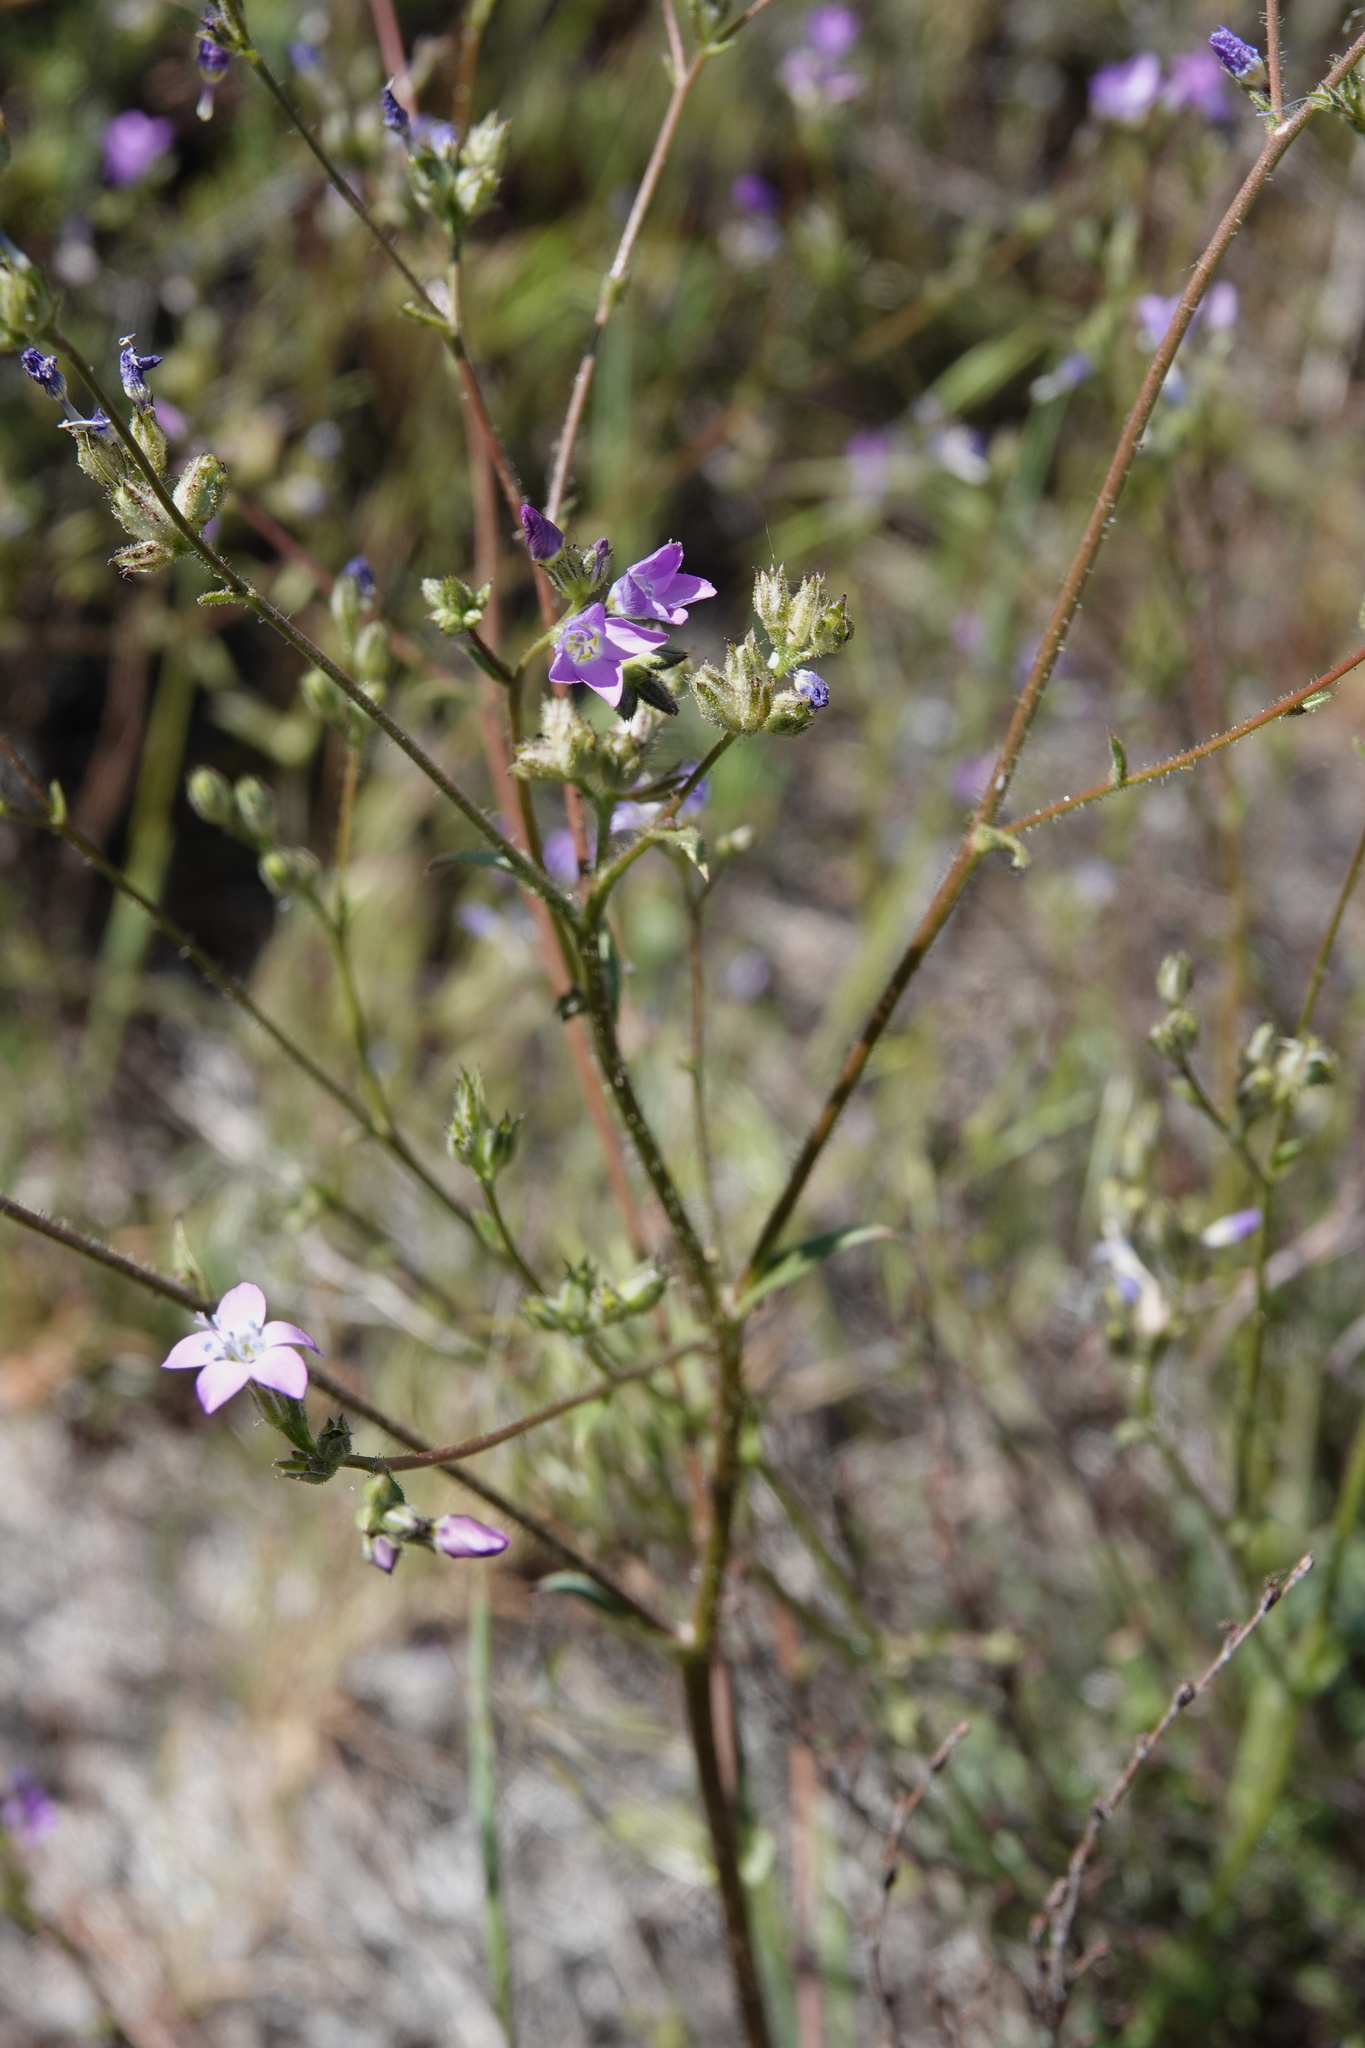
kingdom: Plantae
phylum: Tracheophyta
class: Magnoliopsida
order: Ericales
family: Polemoniaceae
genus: Gilia
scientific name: Gilia diegensis
